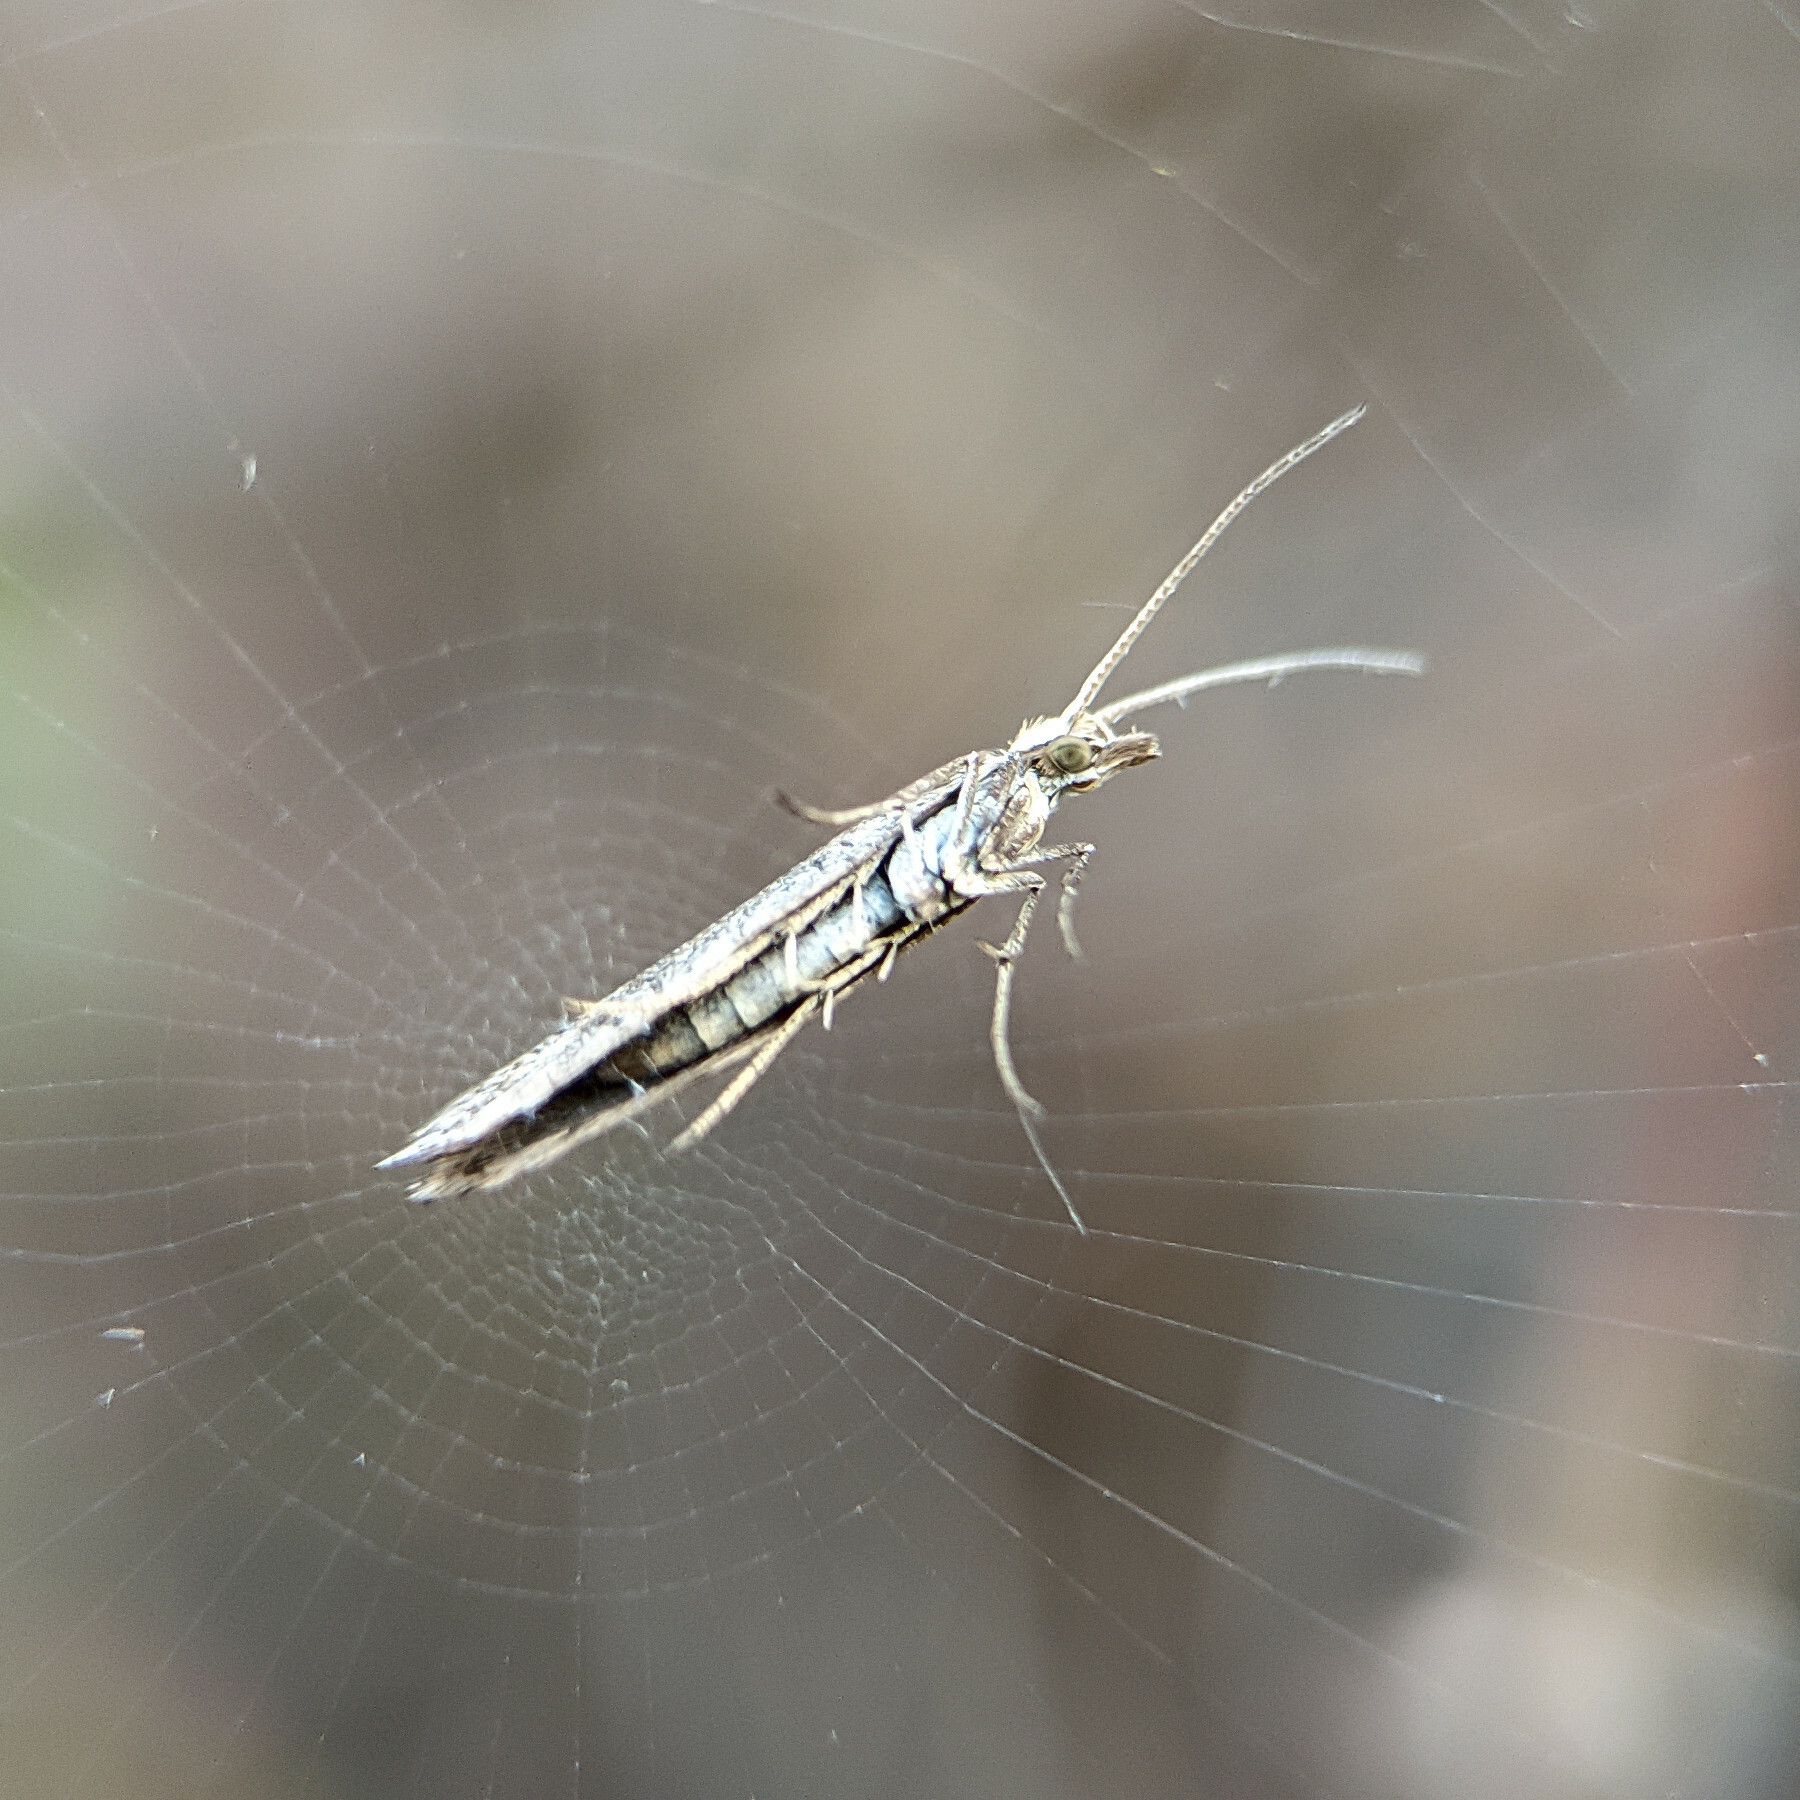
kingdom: Animalia
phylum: Arthropoda
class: Insecta
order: Lepidoptera
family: Plutellidae
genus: Plutella
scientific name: Plutella xylostella
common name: Diamond-back moth
